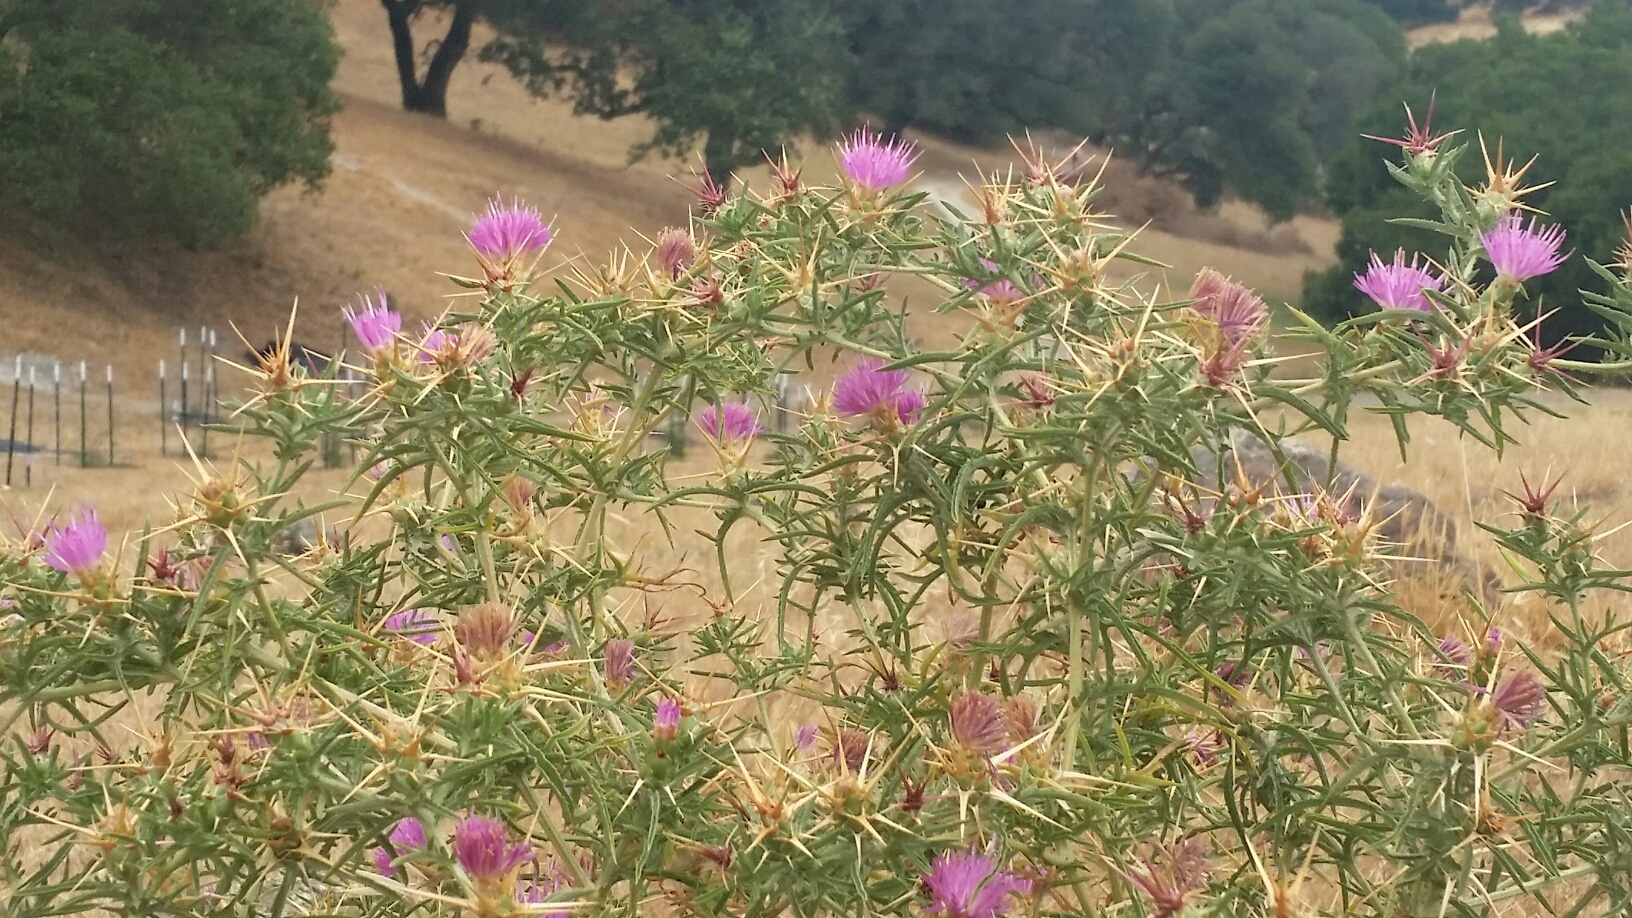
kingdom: Plantae
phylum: Tracheophyta
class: Magnoliopsida
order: Asterales
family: Asteraceae
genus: Centaurea
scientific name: Centaurea calcitrapa
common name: Red star-thistle
